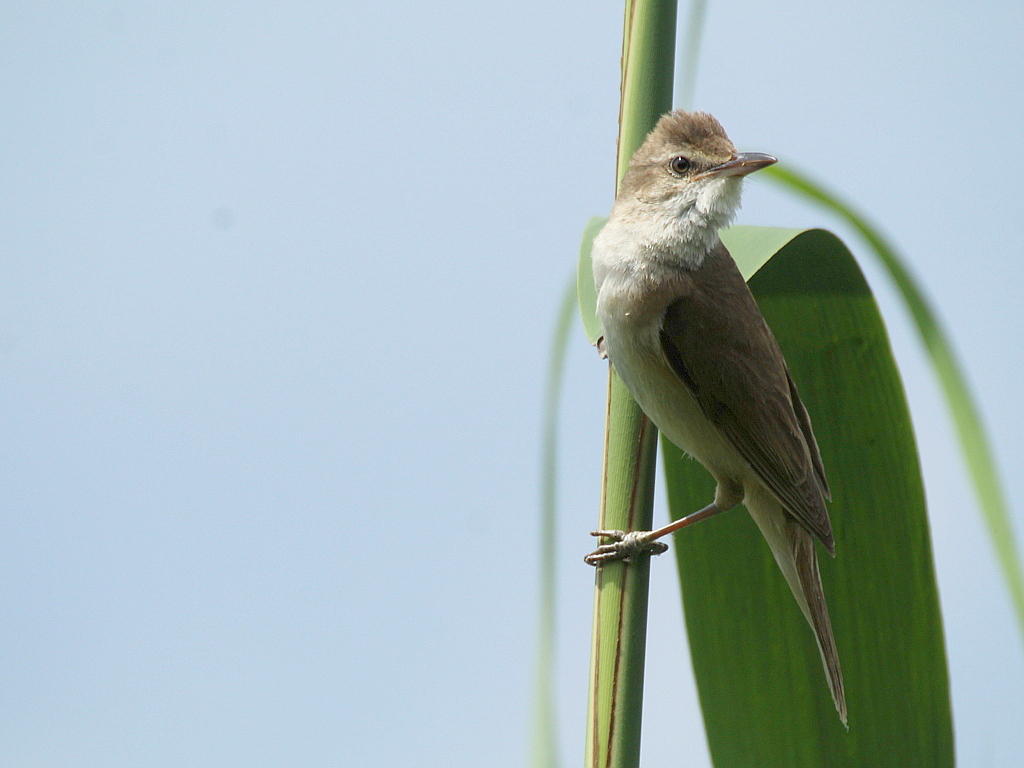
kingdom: Animalia
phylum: Chordata
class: Aves
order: Passeriformes
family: Acrocephalidae
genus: Acrocephalus
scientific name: Acrocephalus arundinaceus
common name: Great reed warbler
